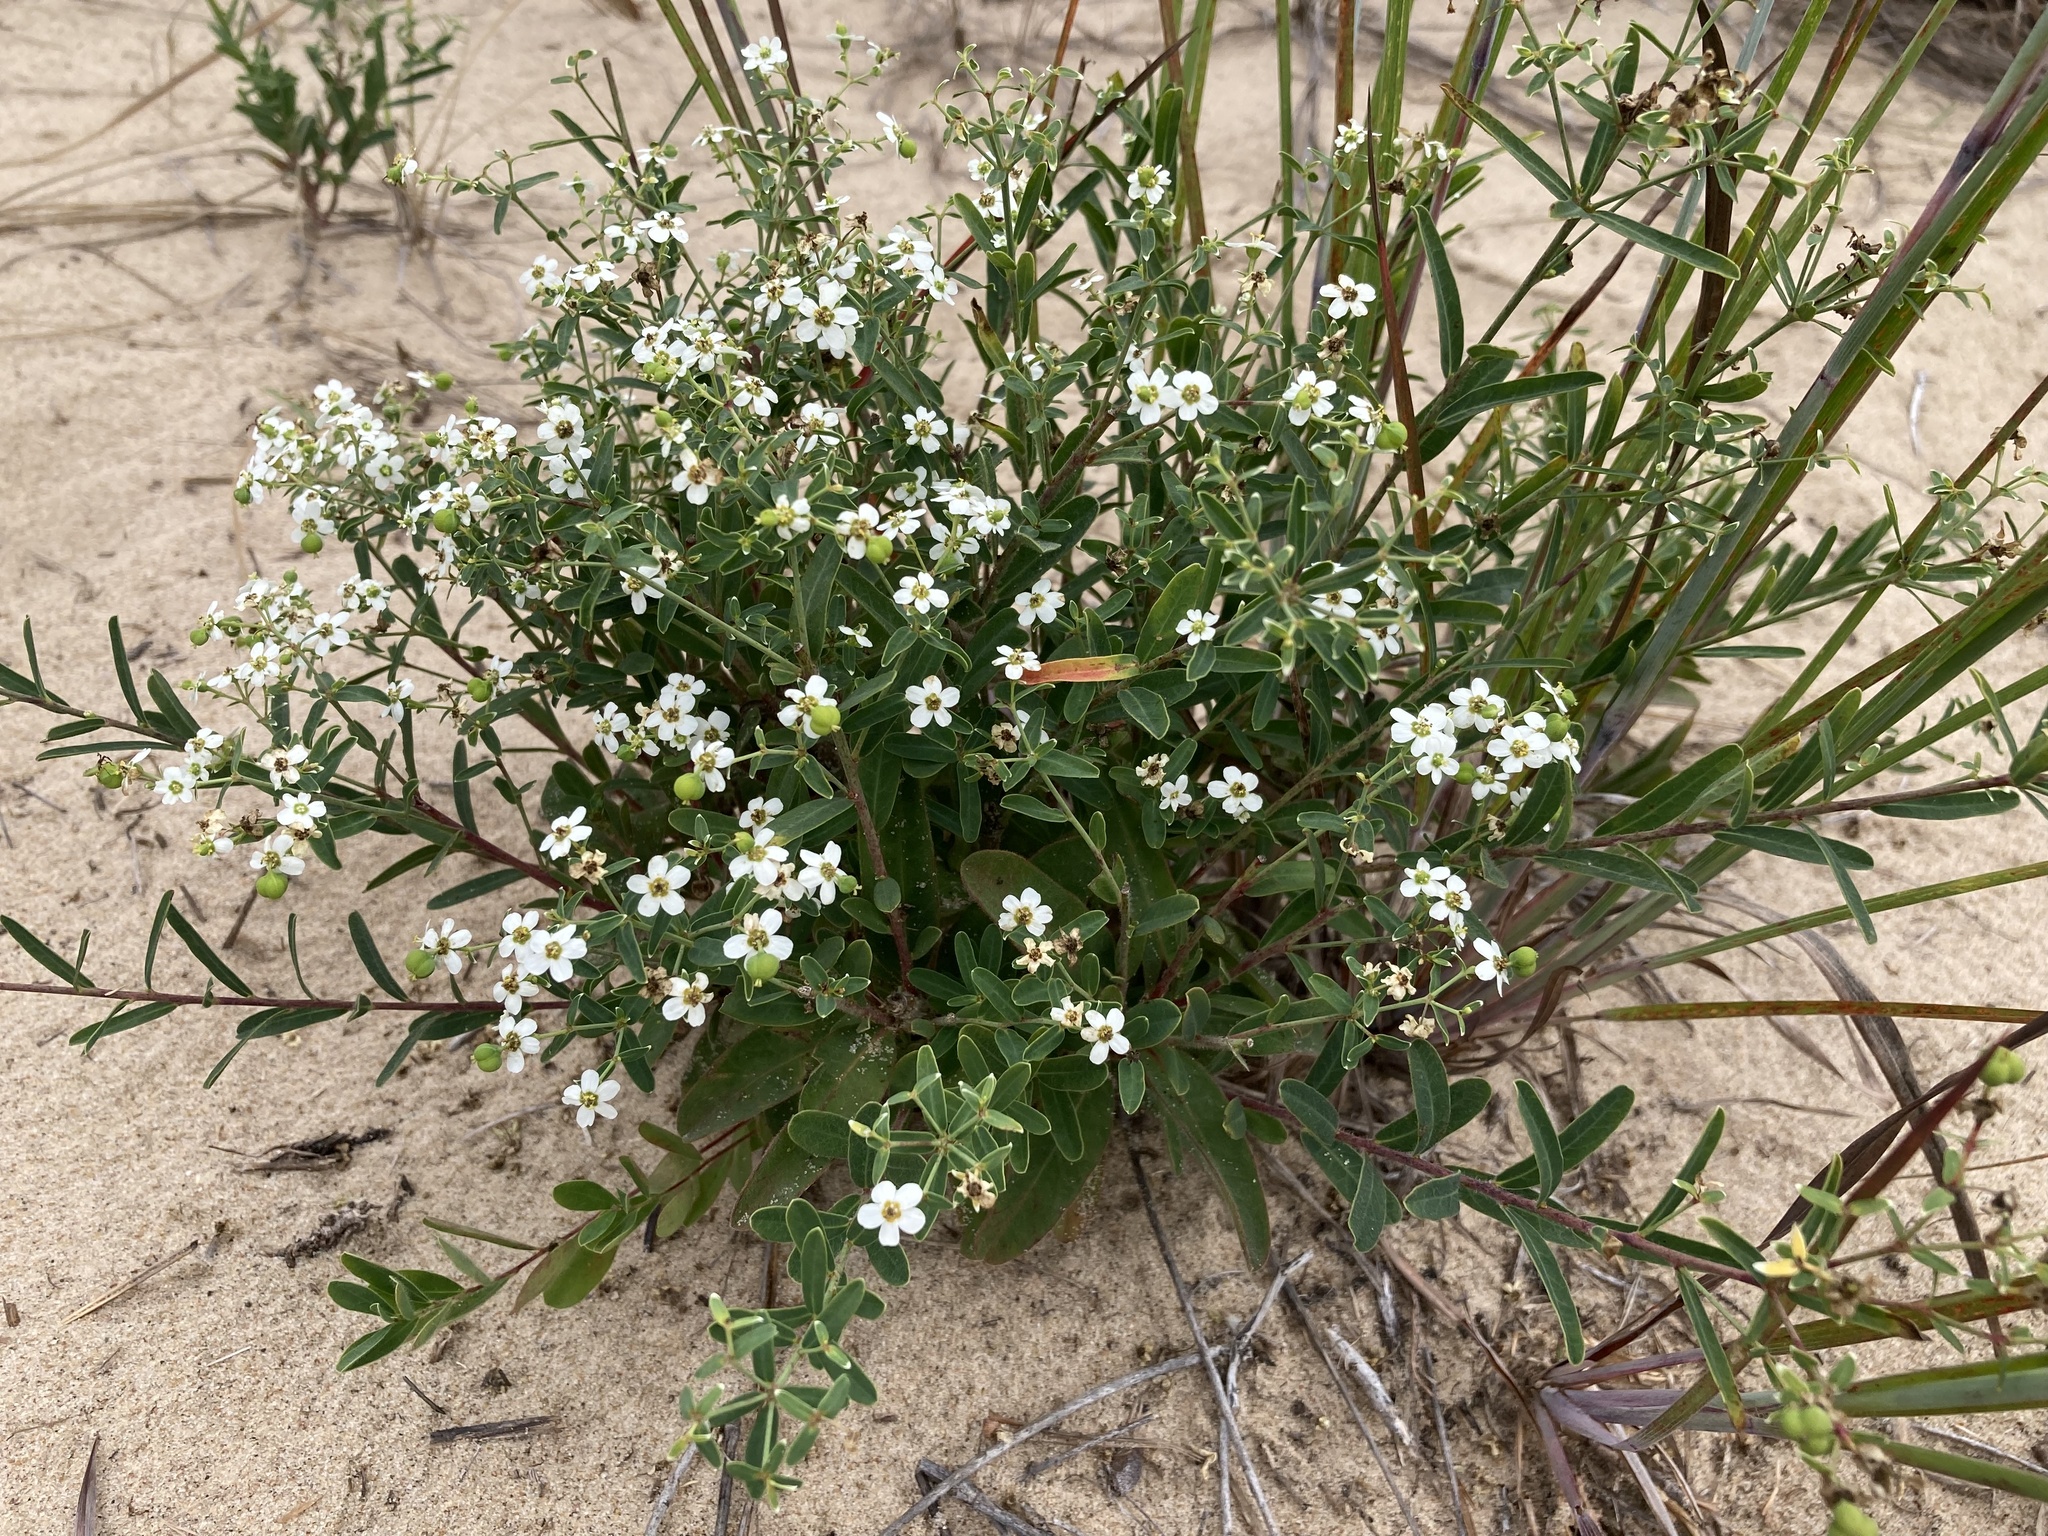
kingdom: Plantae
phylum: Tracheophyta
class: Magnoliopsida
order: Malpighiales
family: Euphorbiaceae
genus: Euphorbia
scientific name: Euphorbia corollata
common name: Flowering spurge
